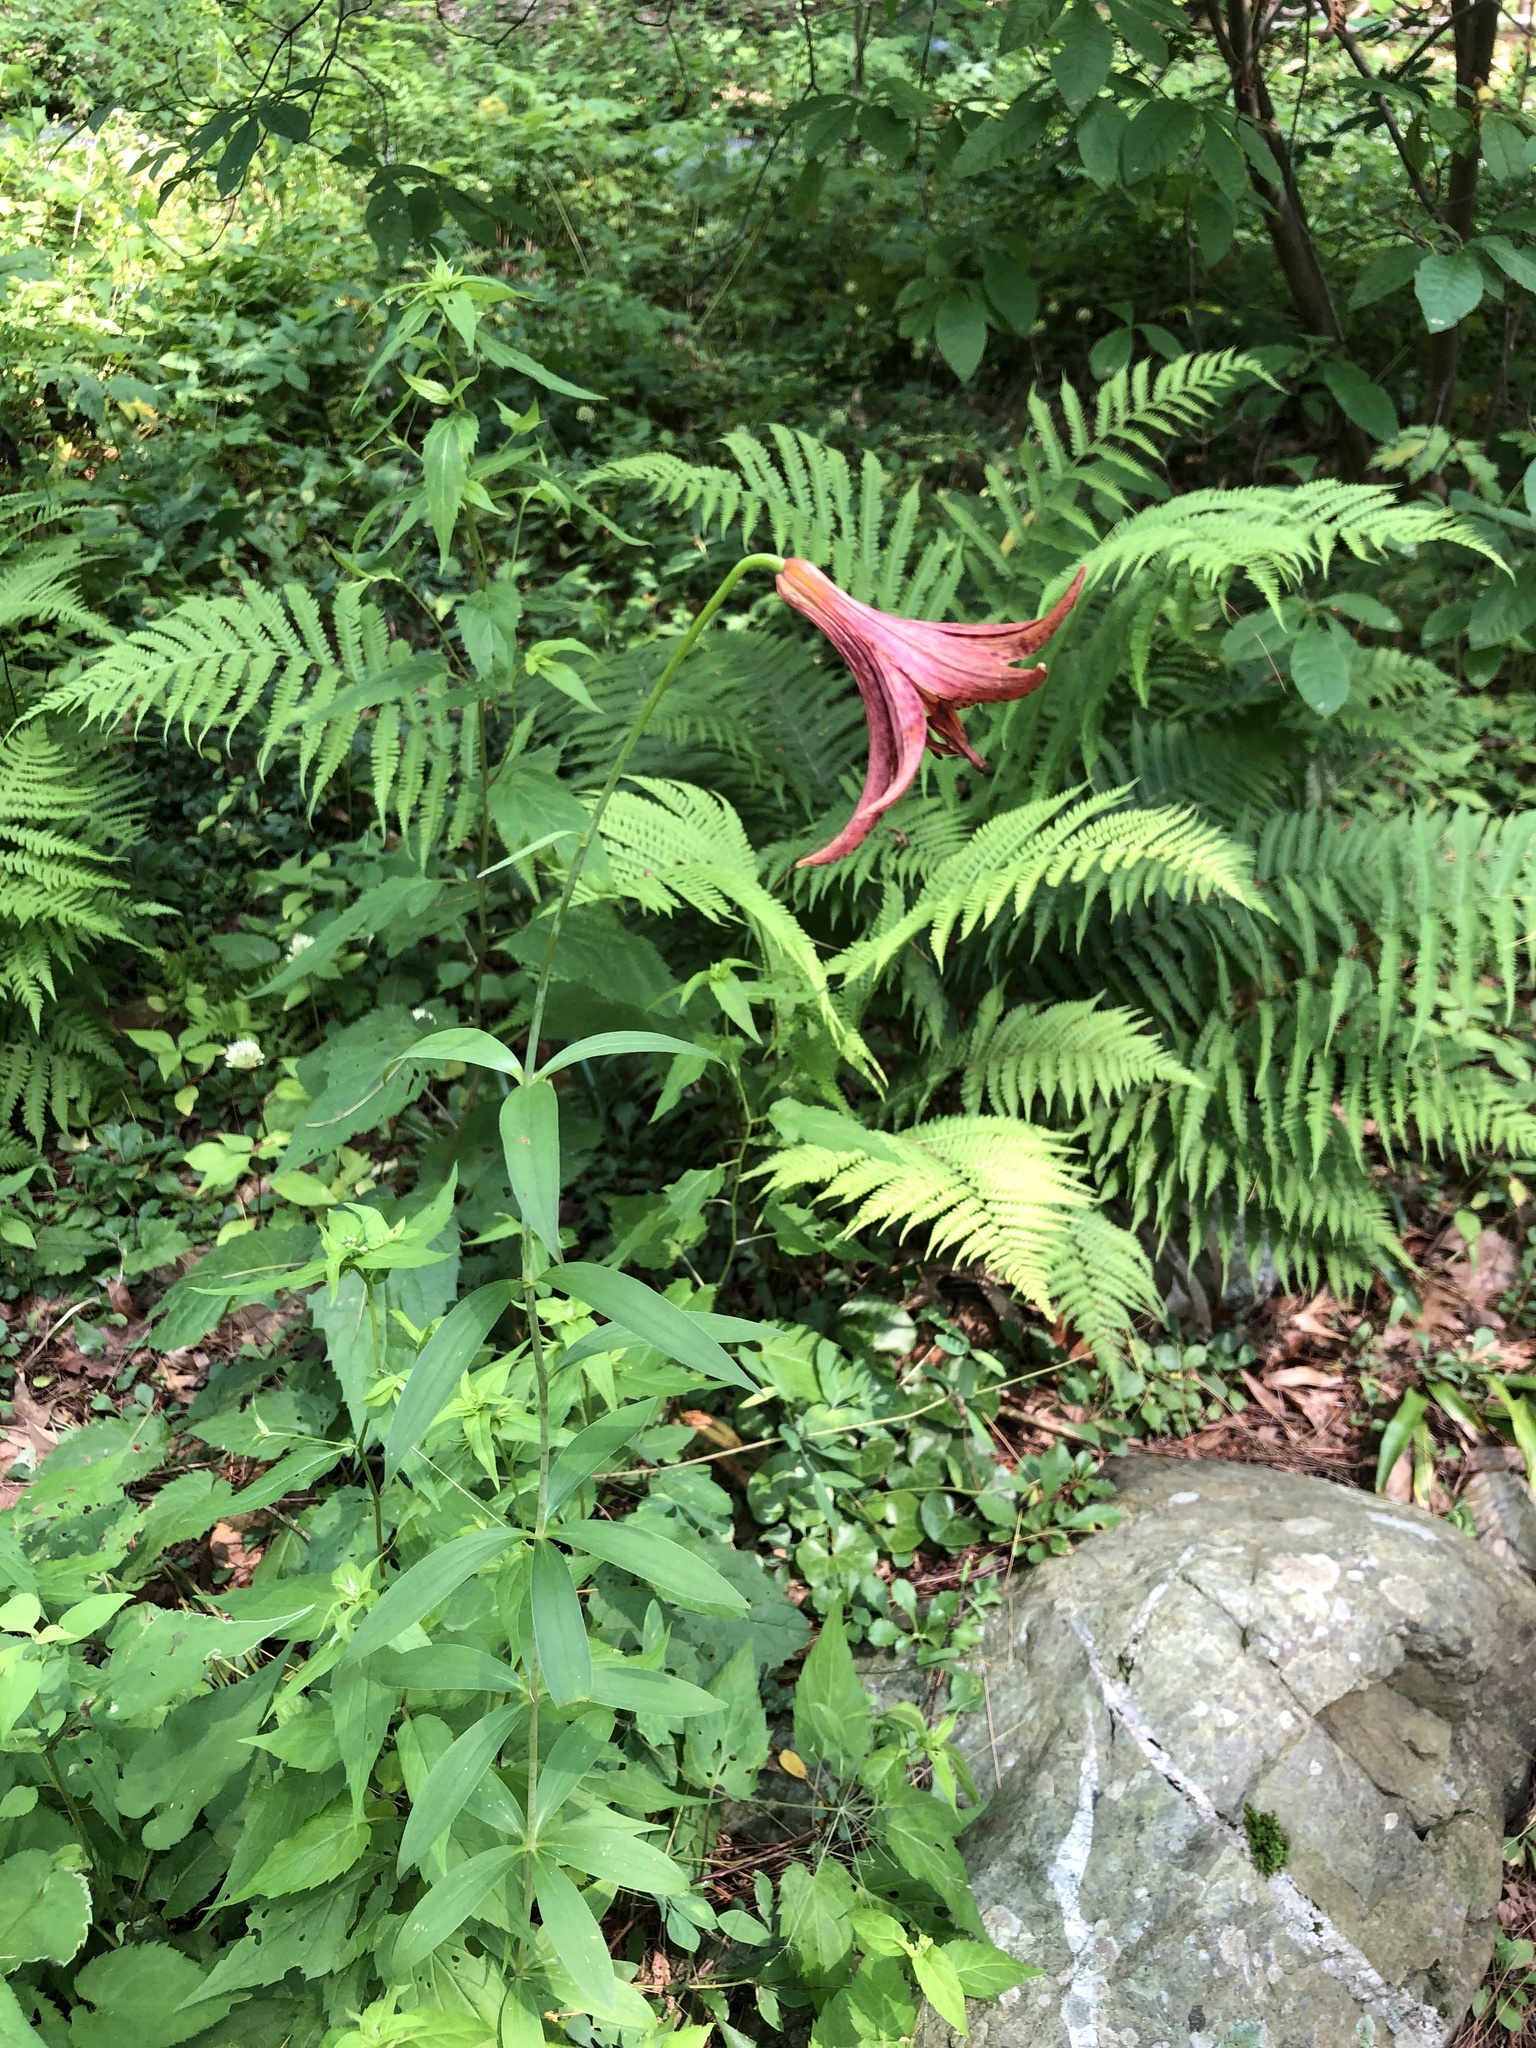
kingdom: Plantae
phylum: Tracheophyta
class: Liliopsida
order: Liliales
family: Liliaceae
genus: Lilium
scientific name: Lilium canadense
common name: Canada lily
